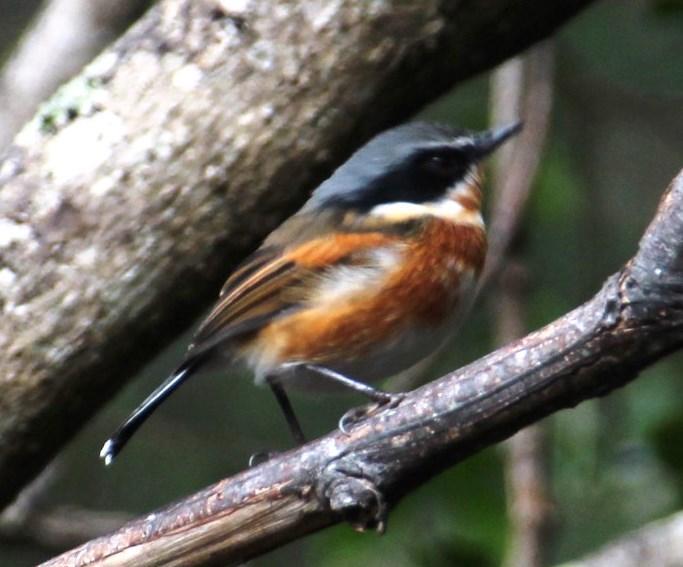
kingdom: Animalia
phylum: Chordata
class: Aves
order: Passeriformes
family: Platysteiridae
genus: Batis
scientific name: Batis capensis
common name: Cape batis
